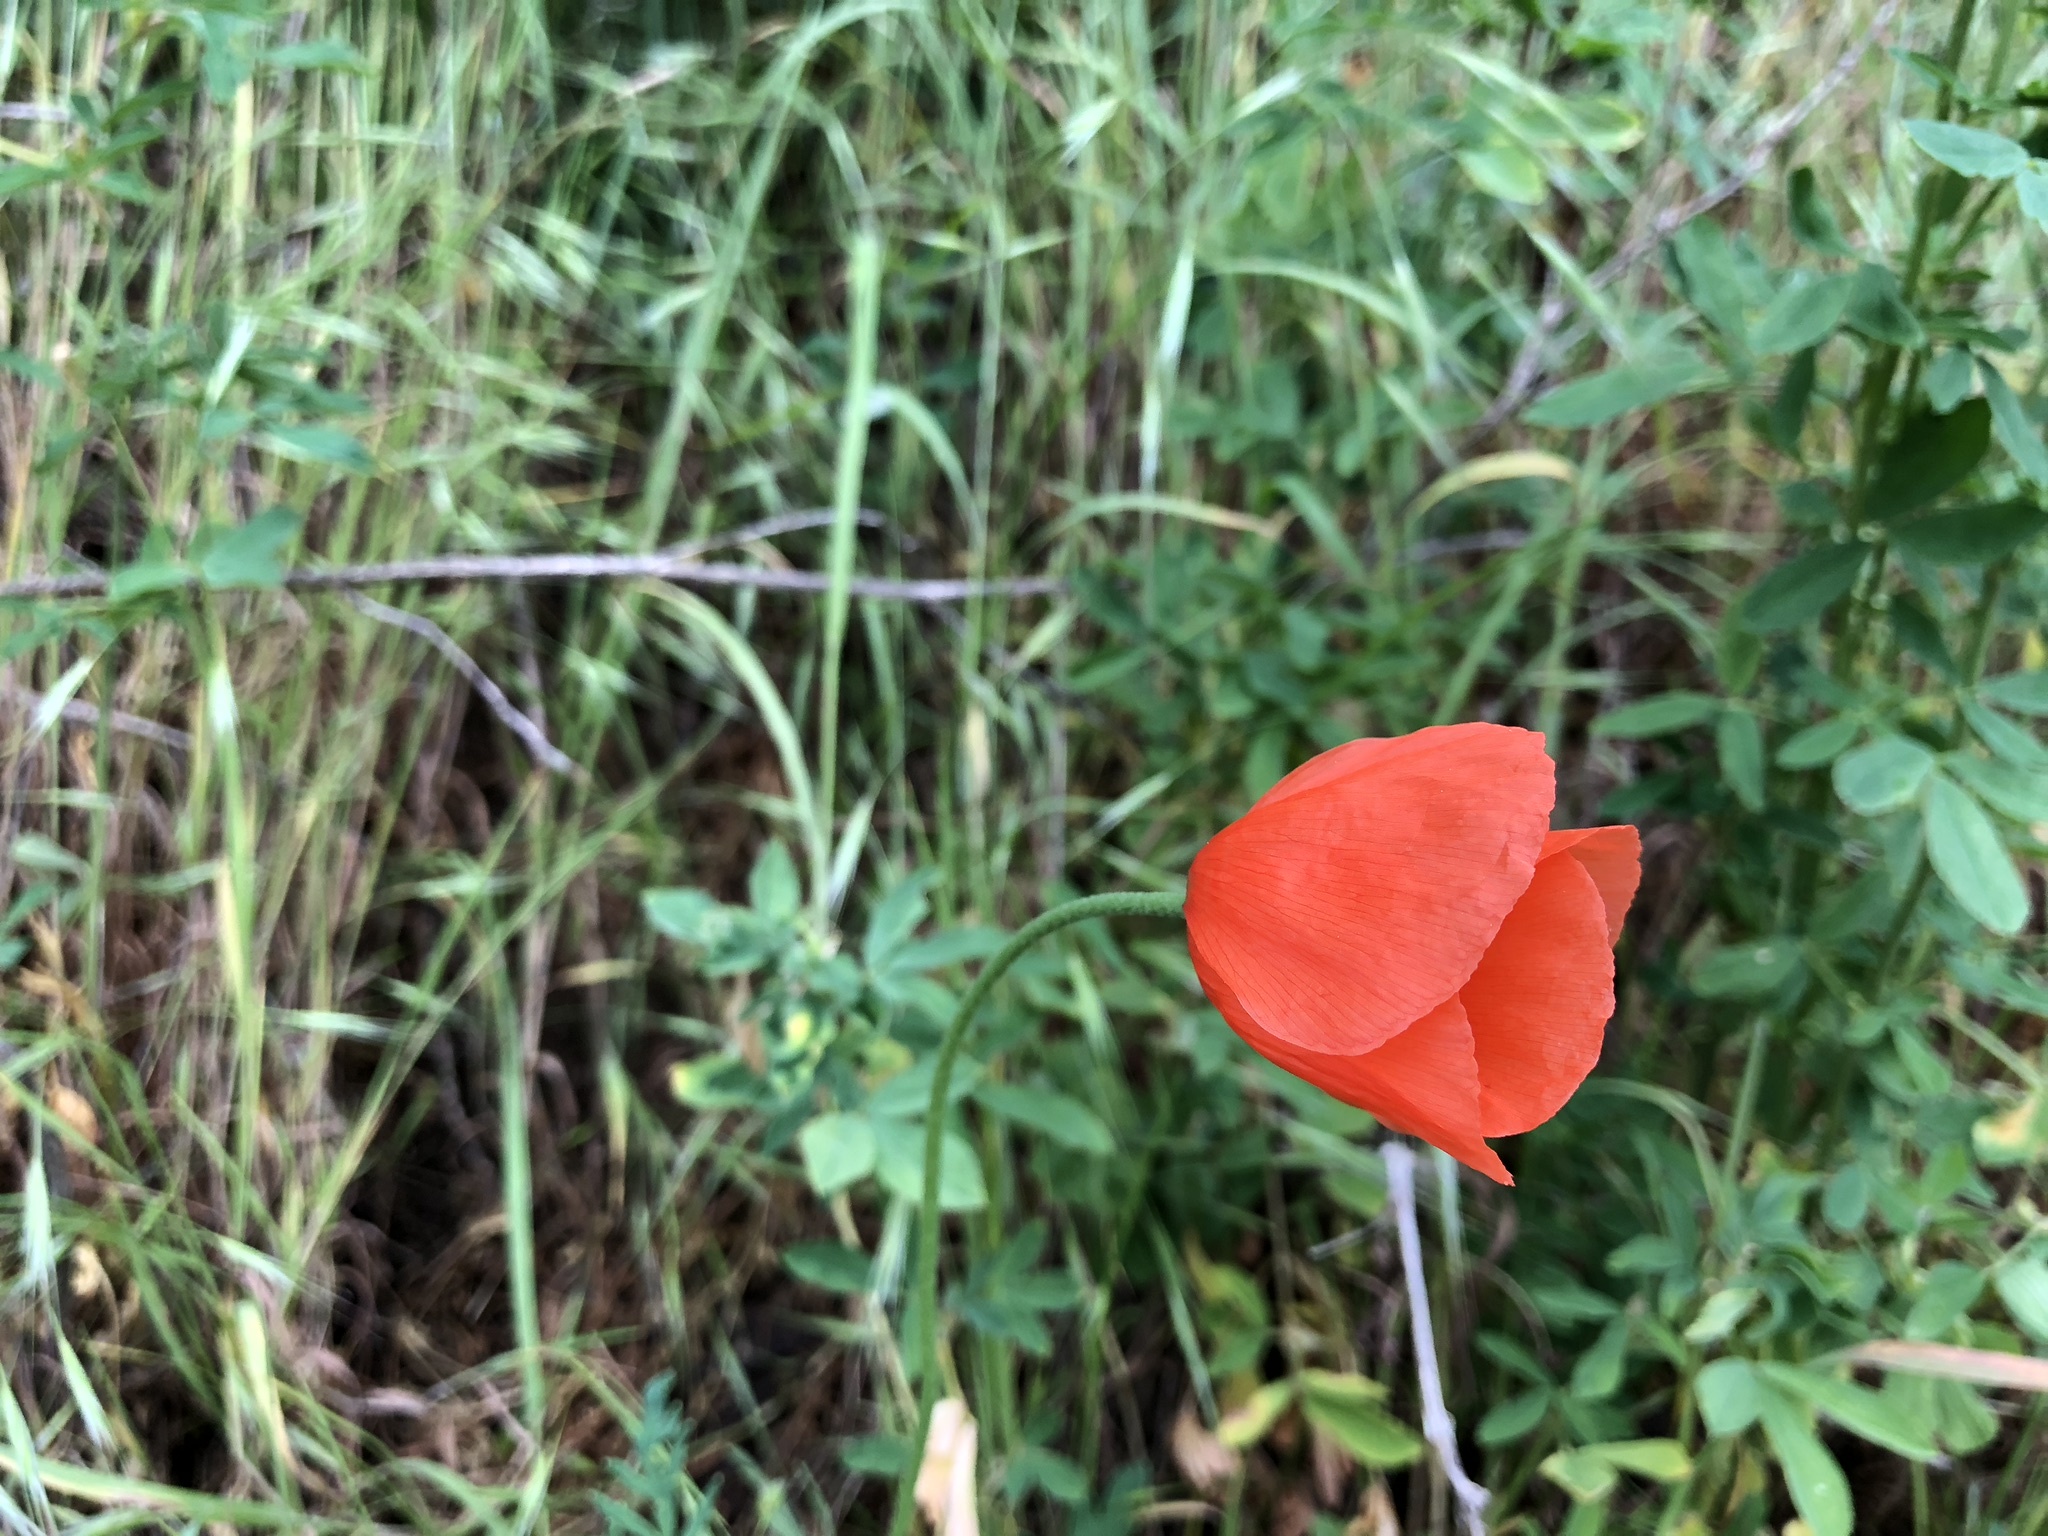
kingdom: Plantae
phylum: Tracheophyta
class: Magnoliopsida
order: Ranunculales
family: Papaveraceae
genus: Papaver
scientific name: Papaver dubium
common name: Long-headed poppy
